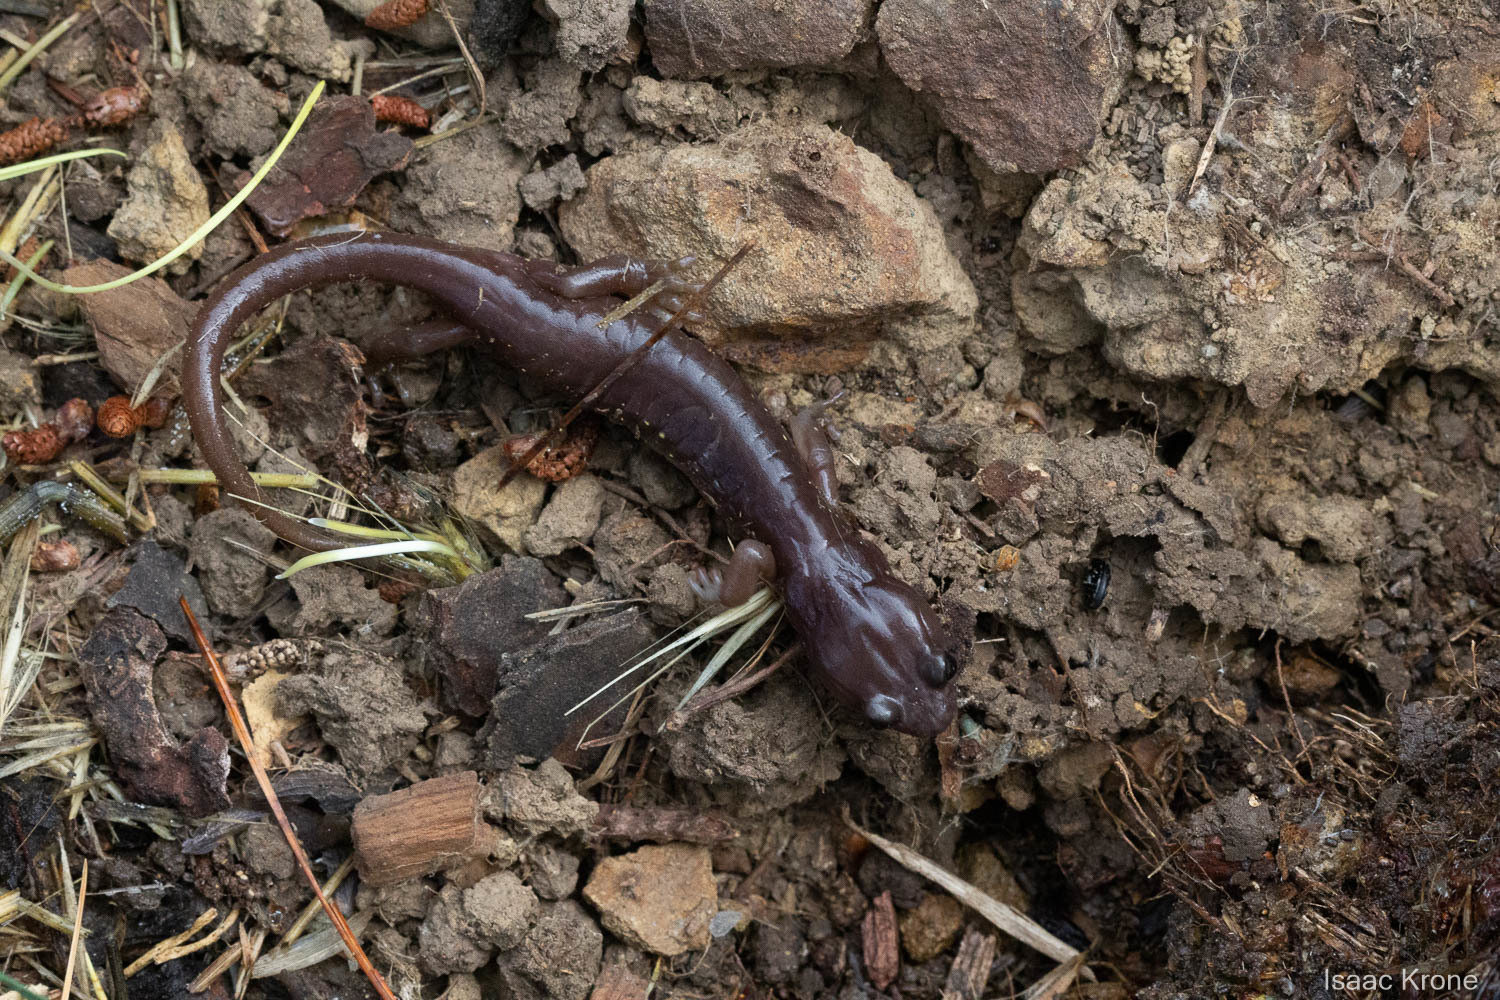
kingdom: Animalia
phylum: Chordata
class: Amphibia
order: Caudata
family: Plethodontidae
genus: Aneides
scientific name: Aneides lugubris
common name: Arboreal salamander
